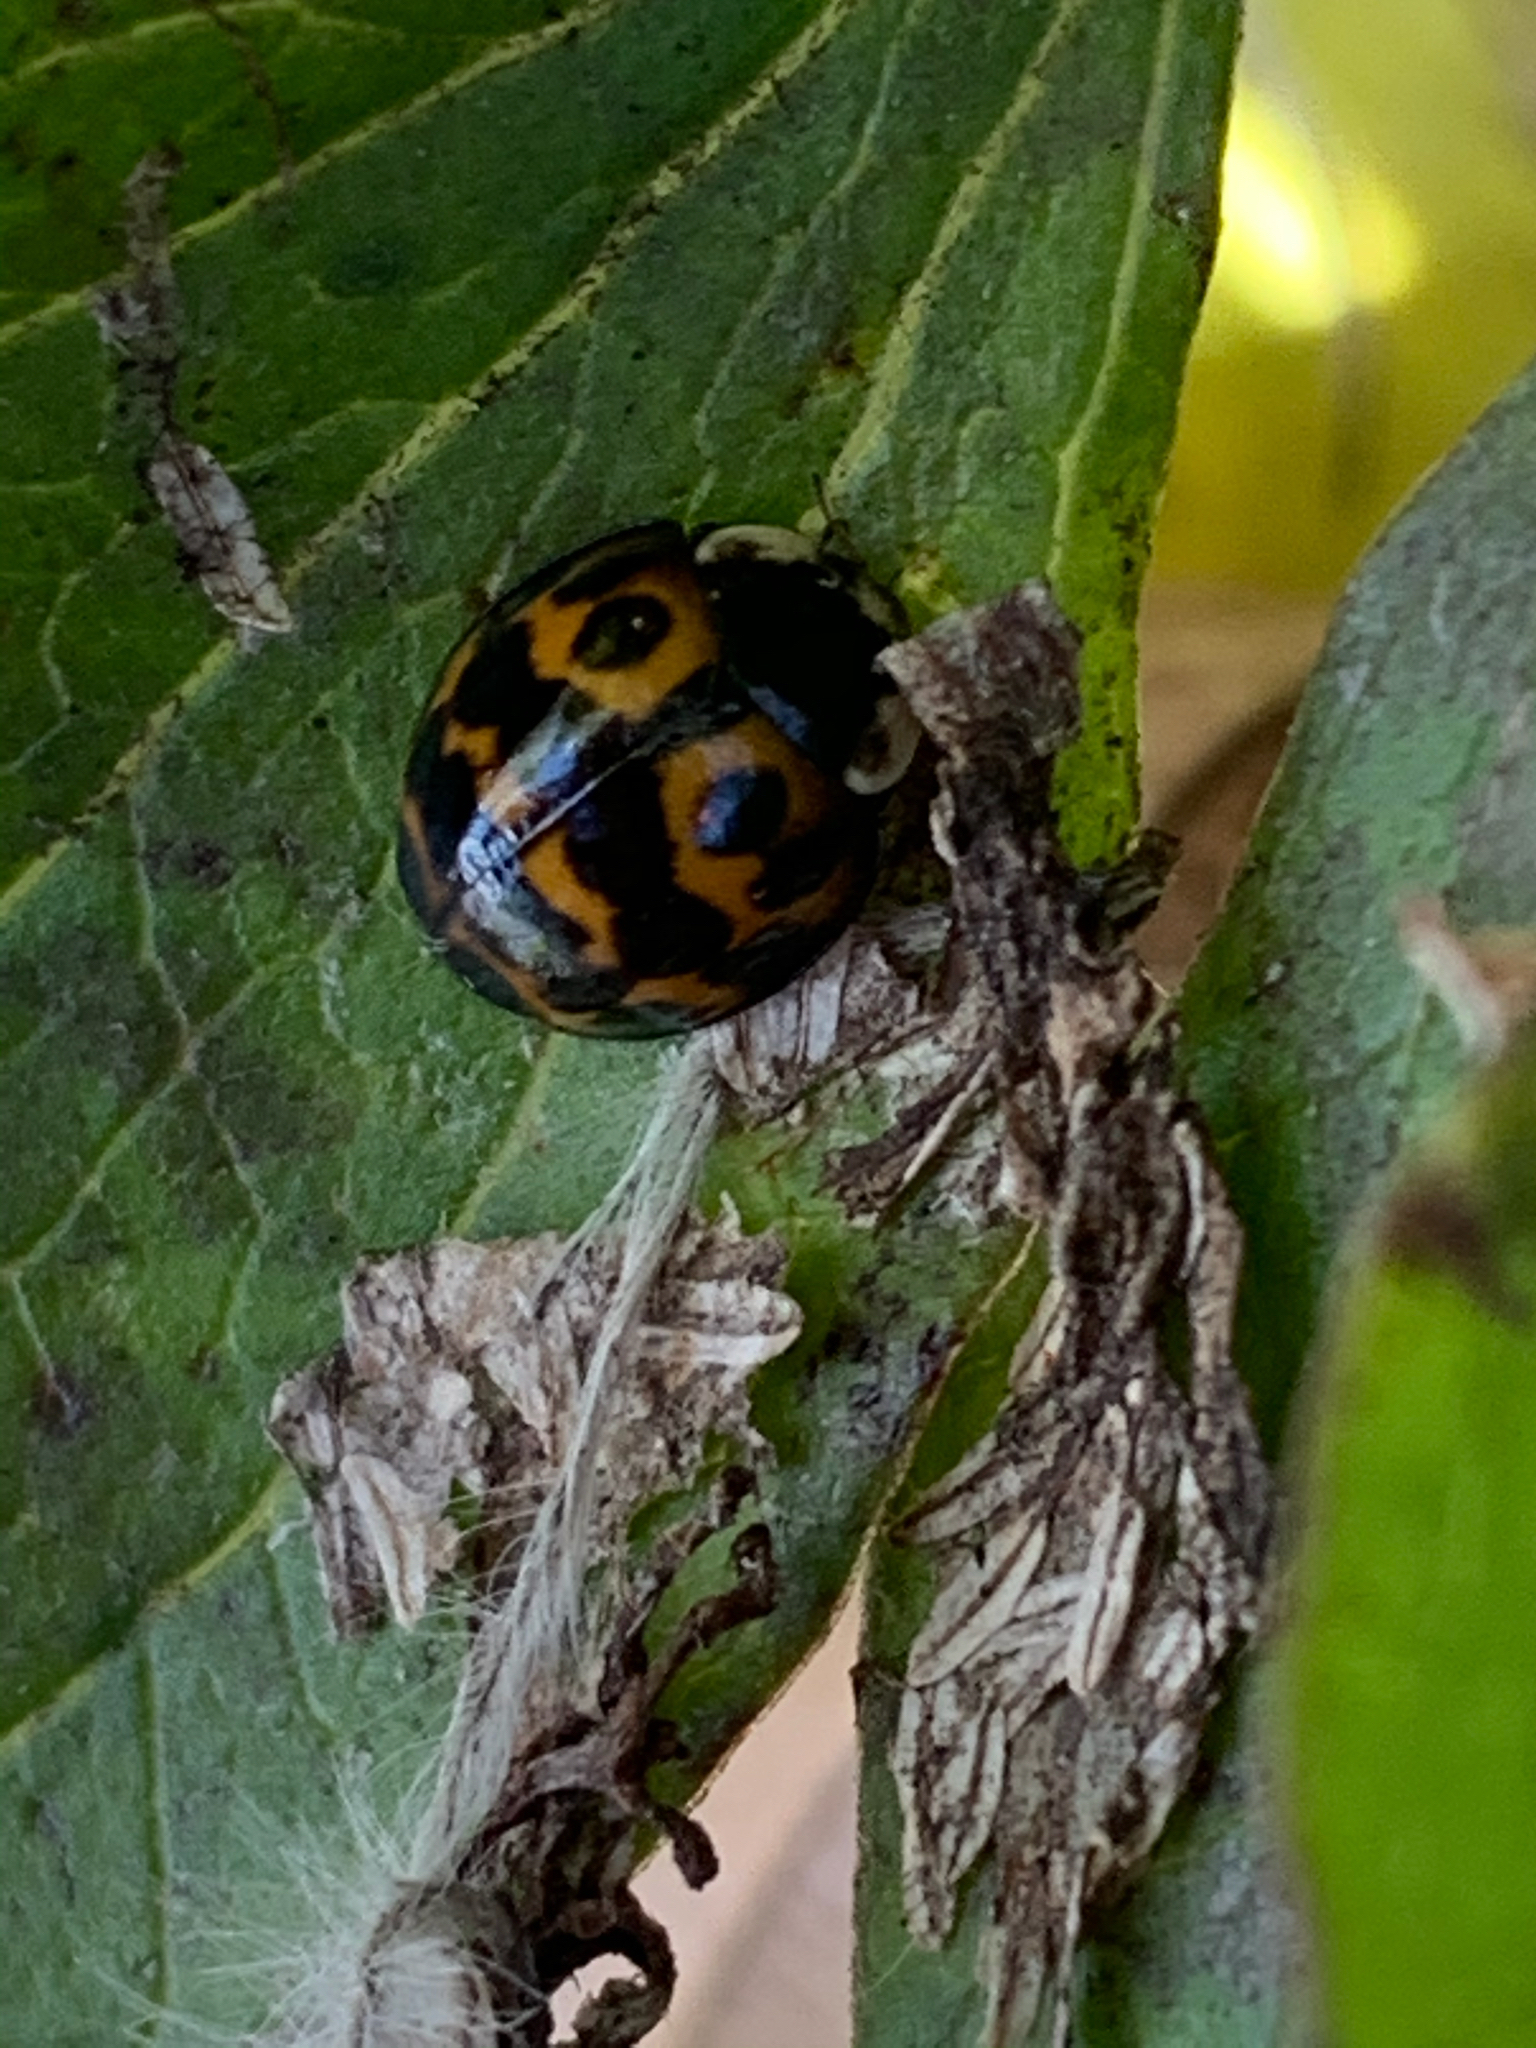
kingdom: Animalia
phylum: Arthropoda
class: Insecta
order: Coleoptera
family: Coccinellidae
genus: Harmonia
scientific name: Harmonia axyridis
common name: Harlequin ladybird
